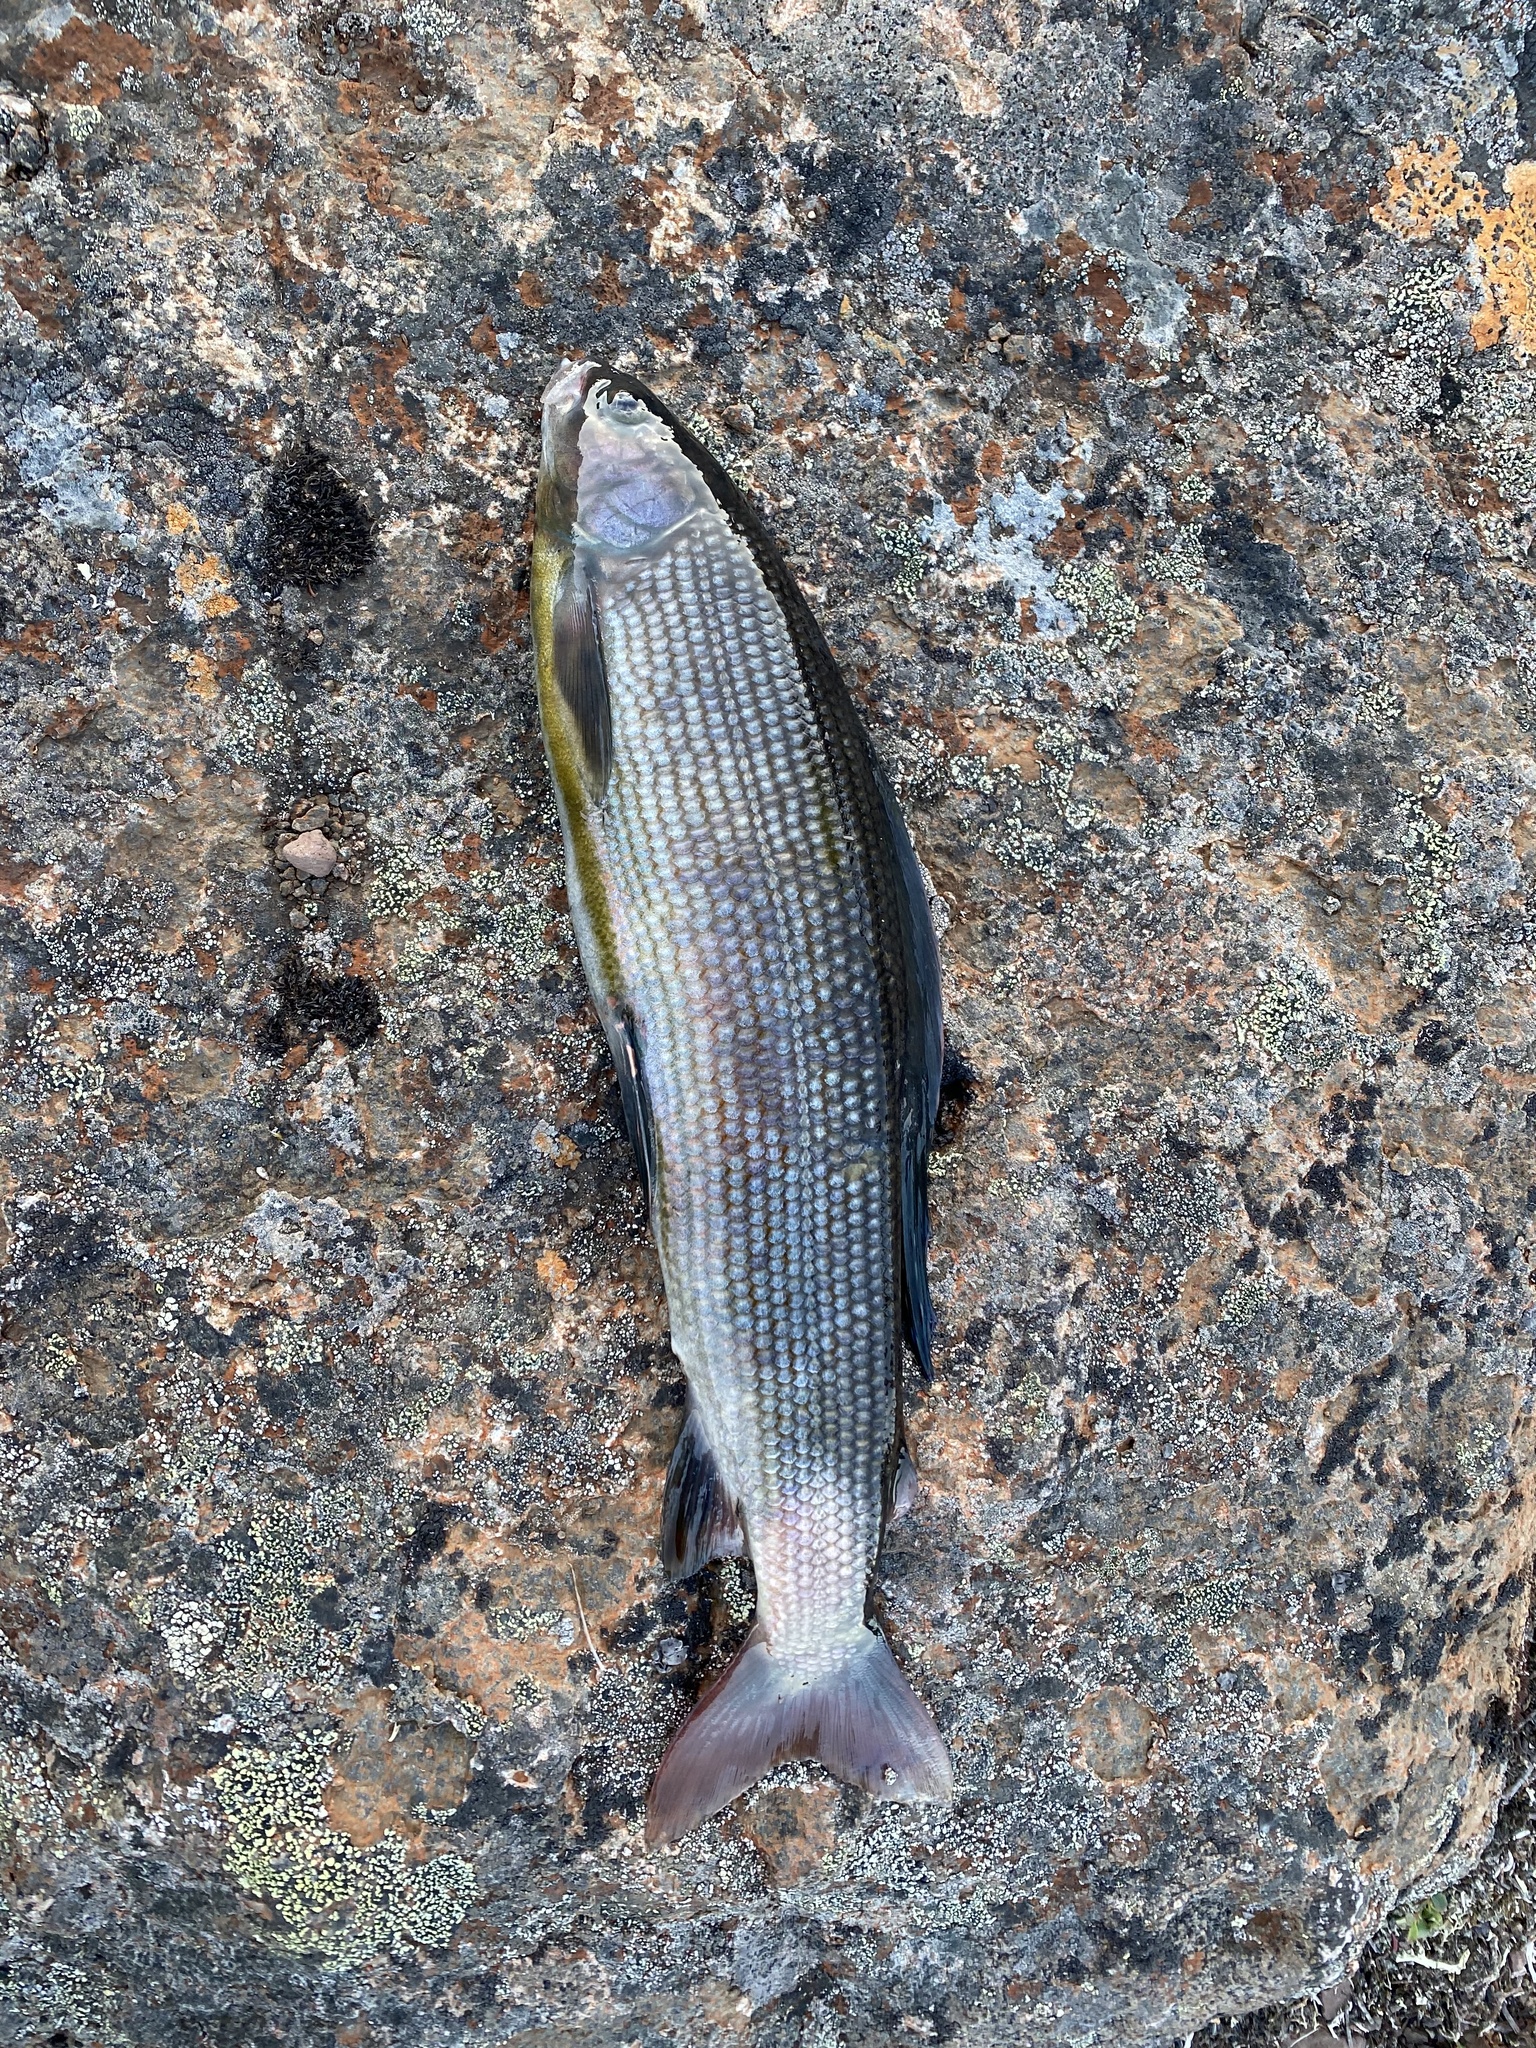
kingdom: Animalia
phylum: Chordata
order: Salmoniformes
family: Salmonidae
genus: Thymallus
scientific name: Thymallus arcticus
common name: Arctic grayling
